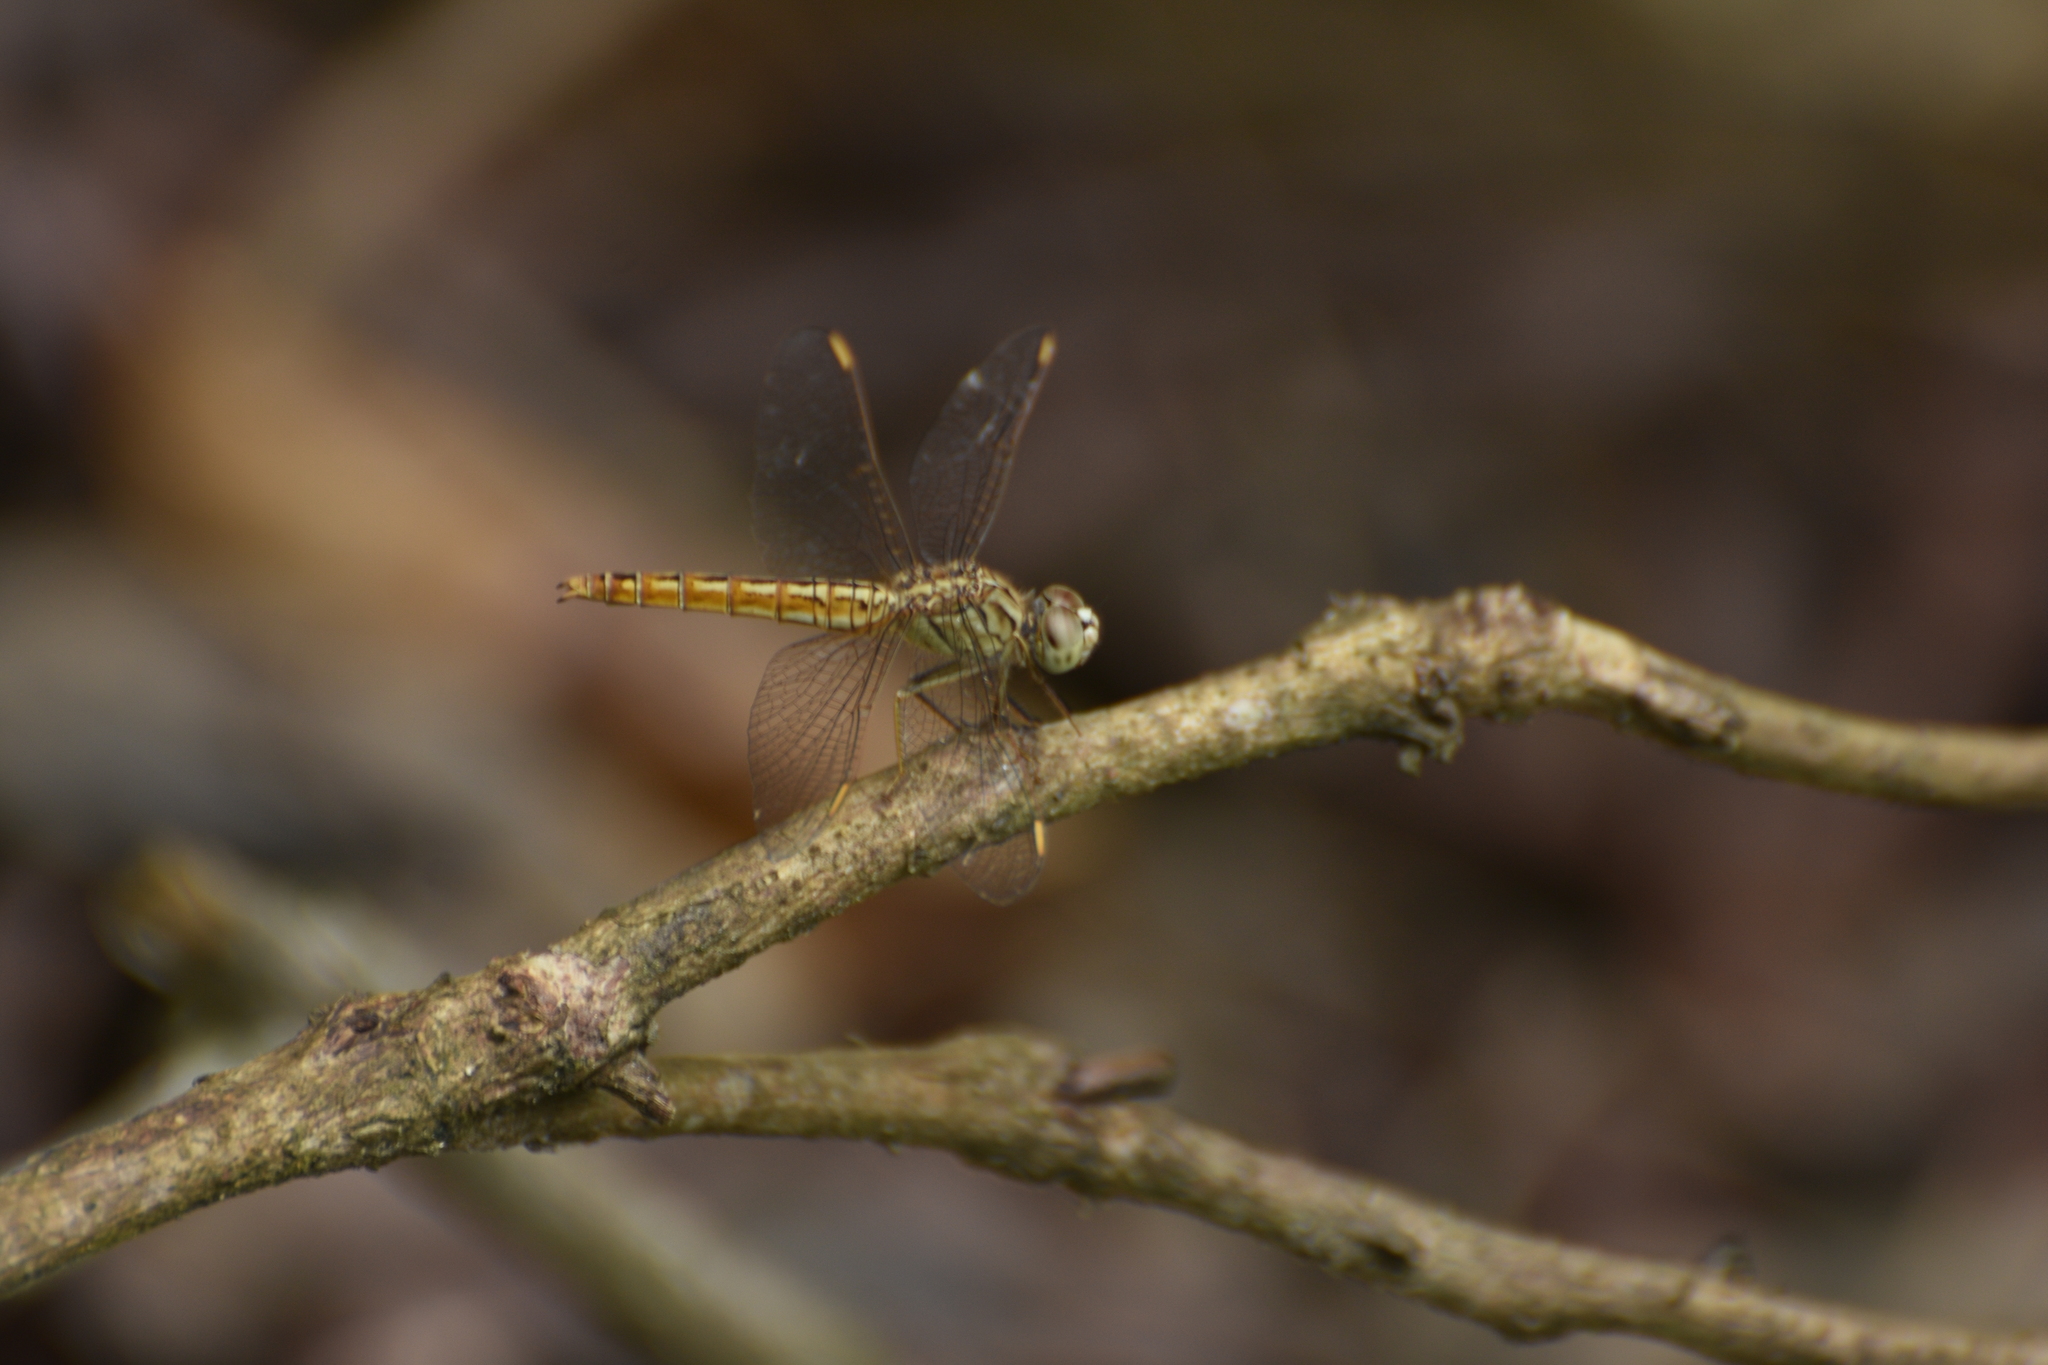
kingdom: Animalia
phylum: Arthropoda
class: Insecta
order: Odonata
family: Libellulidae
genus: Brachythemis
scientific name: Brachythemis contaminata
